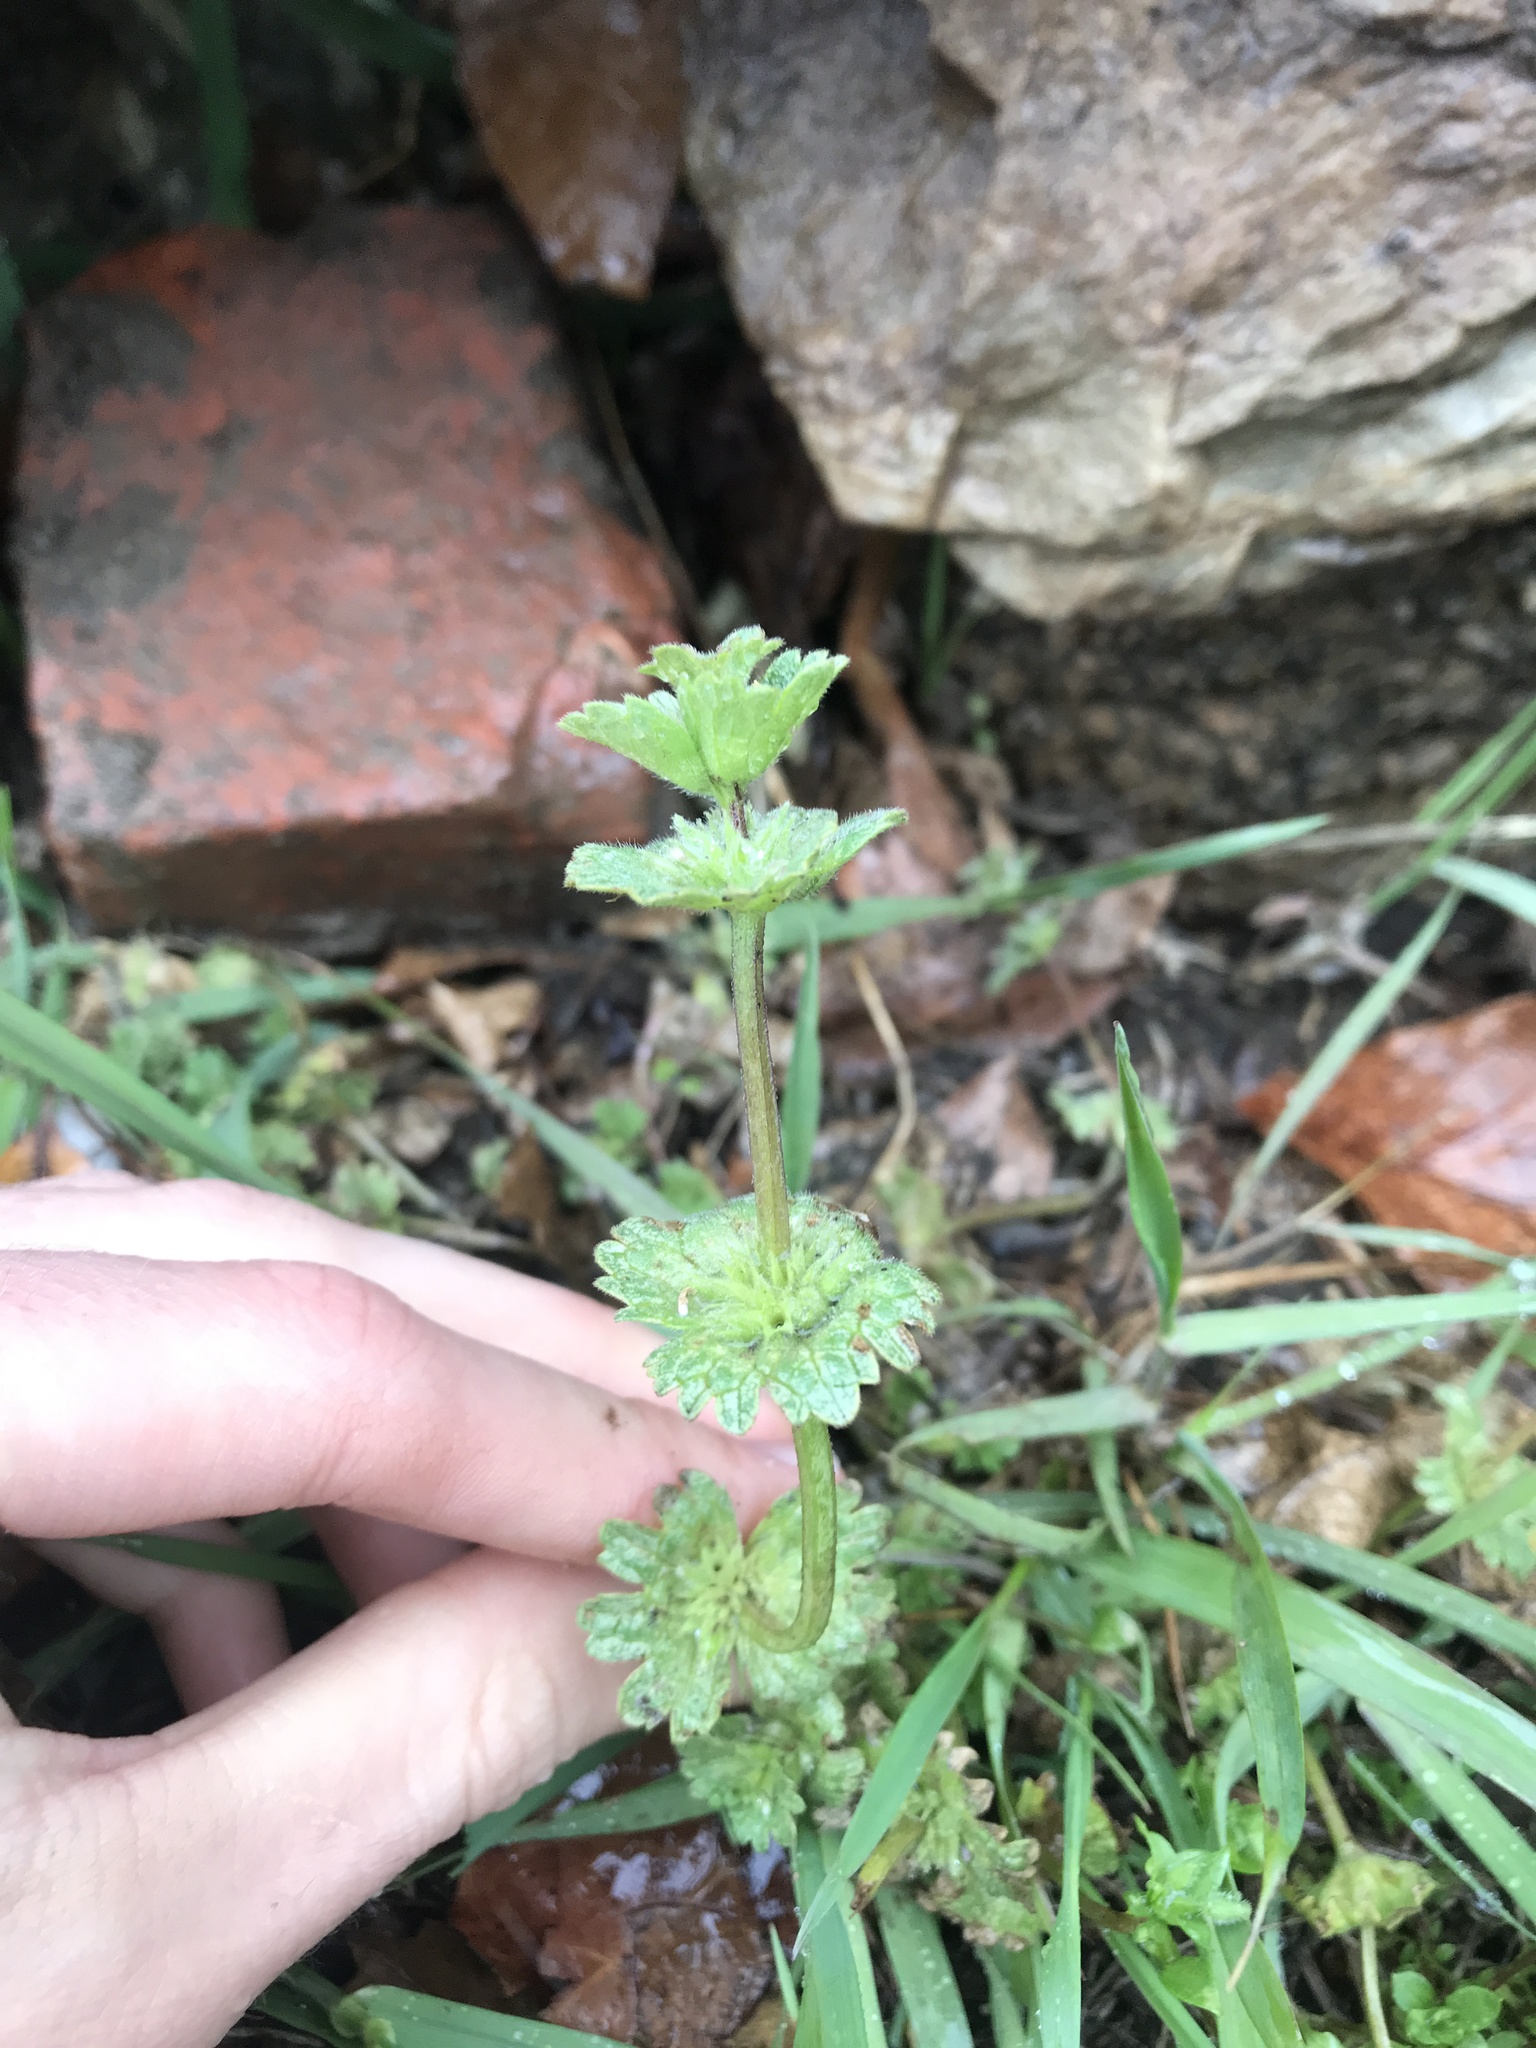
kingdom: Plantae
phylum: Tracheophyta
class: Magnoliopsida
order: Lamiales
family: Lamiaceae
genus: Lamium
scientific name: Lamium amplexicaule
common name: Henbit dead-nettle
